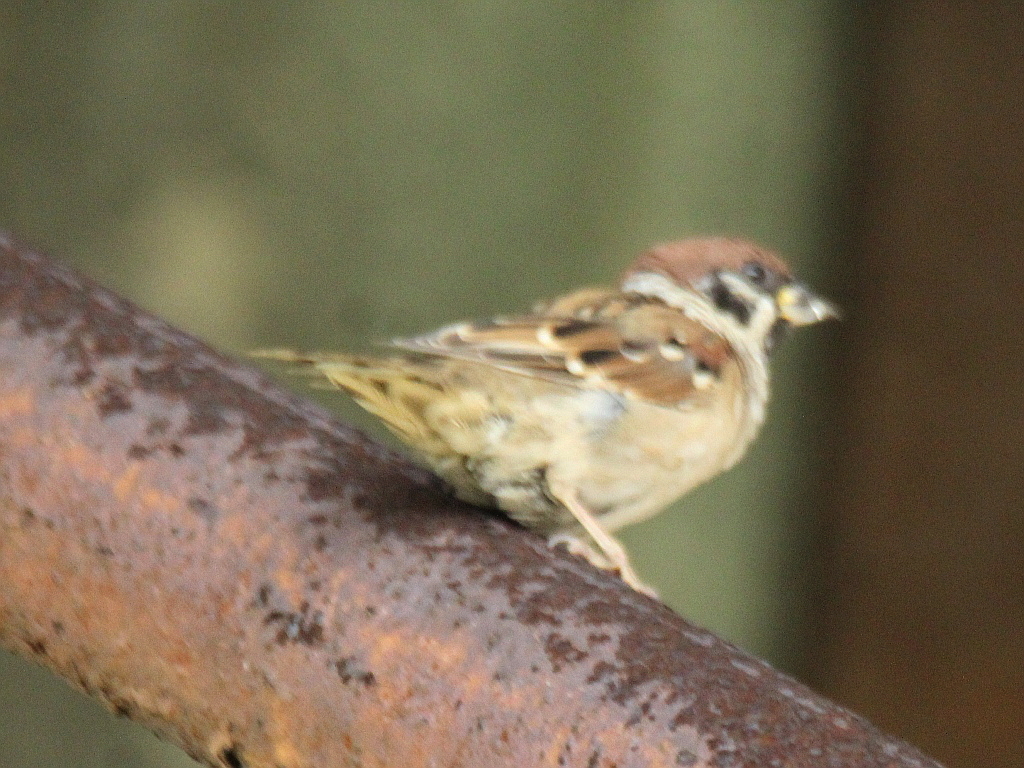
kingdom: Animalia
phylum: Chordata
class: Aves
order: Passeriformes
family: Passeridae
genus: Passer
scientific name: Passer montanus
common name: Eurasian tree sparrow
